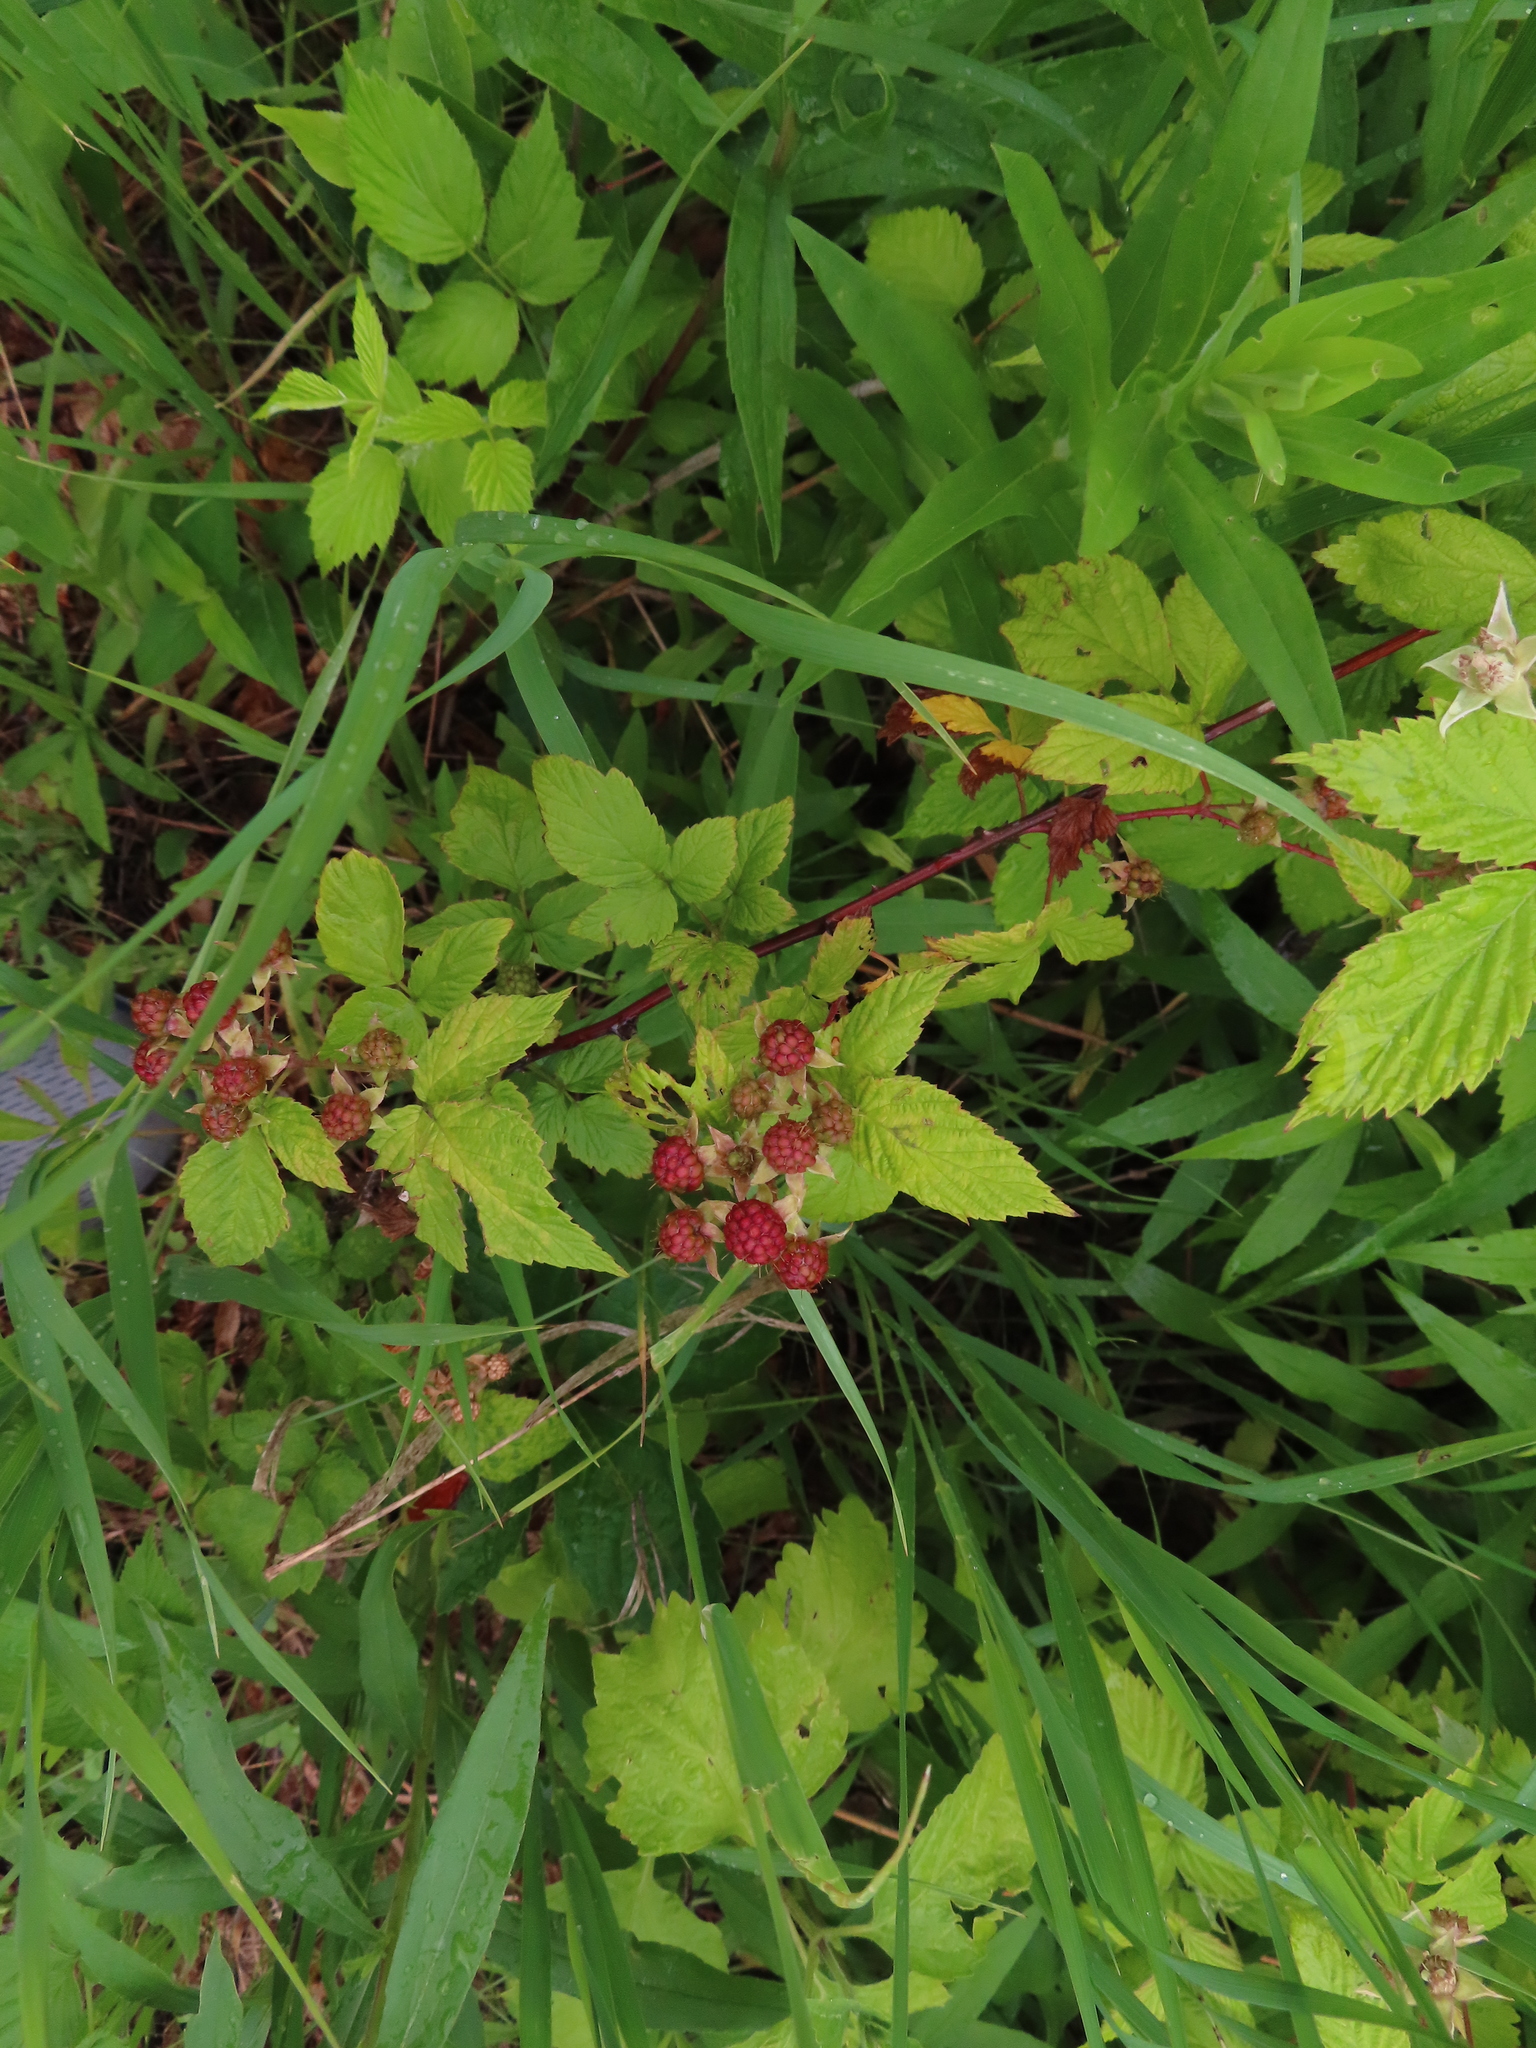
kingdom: Plantae
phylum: Tracheophyta
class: Magnoliopsida
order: Rosales
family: Rosaceae
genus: Rubus
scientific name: Rubus occidentalis
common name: Black raspberry
